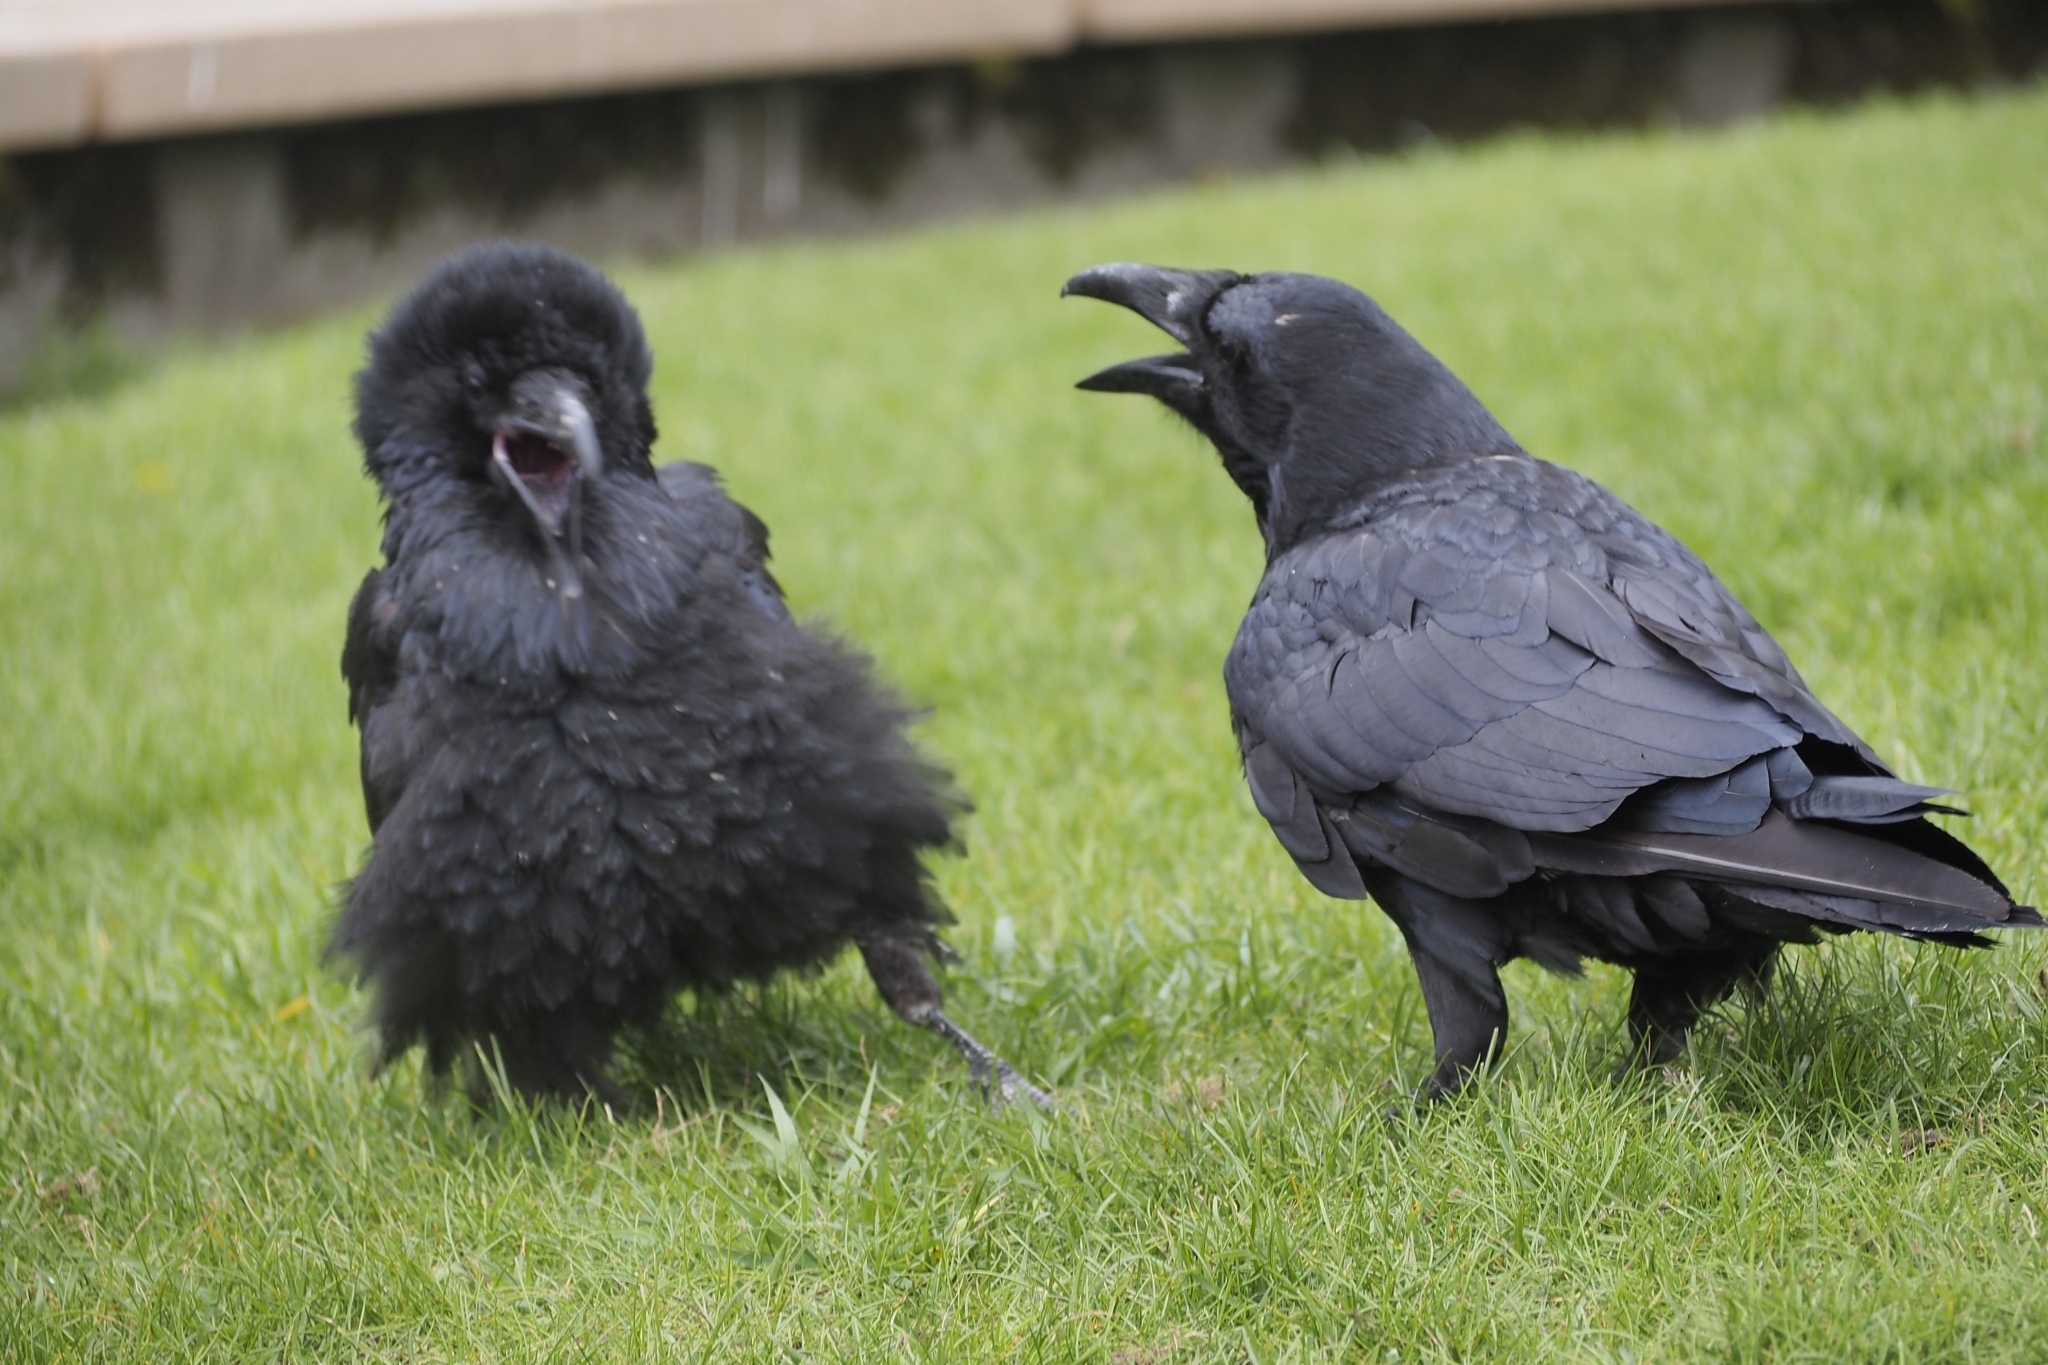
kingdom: Animalia
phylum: Chordata
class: Aves
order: Passeriformes
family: Corvidae
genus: Corvus
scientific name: Corvus corax
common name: Common raven
